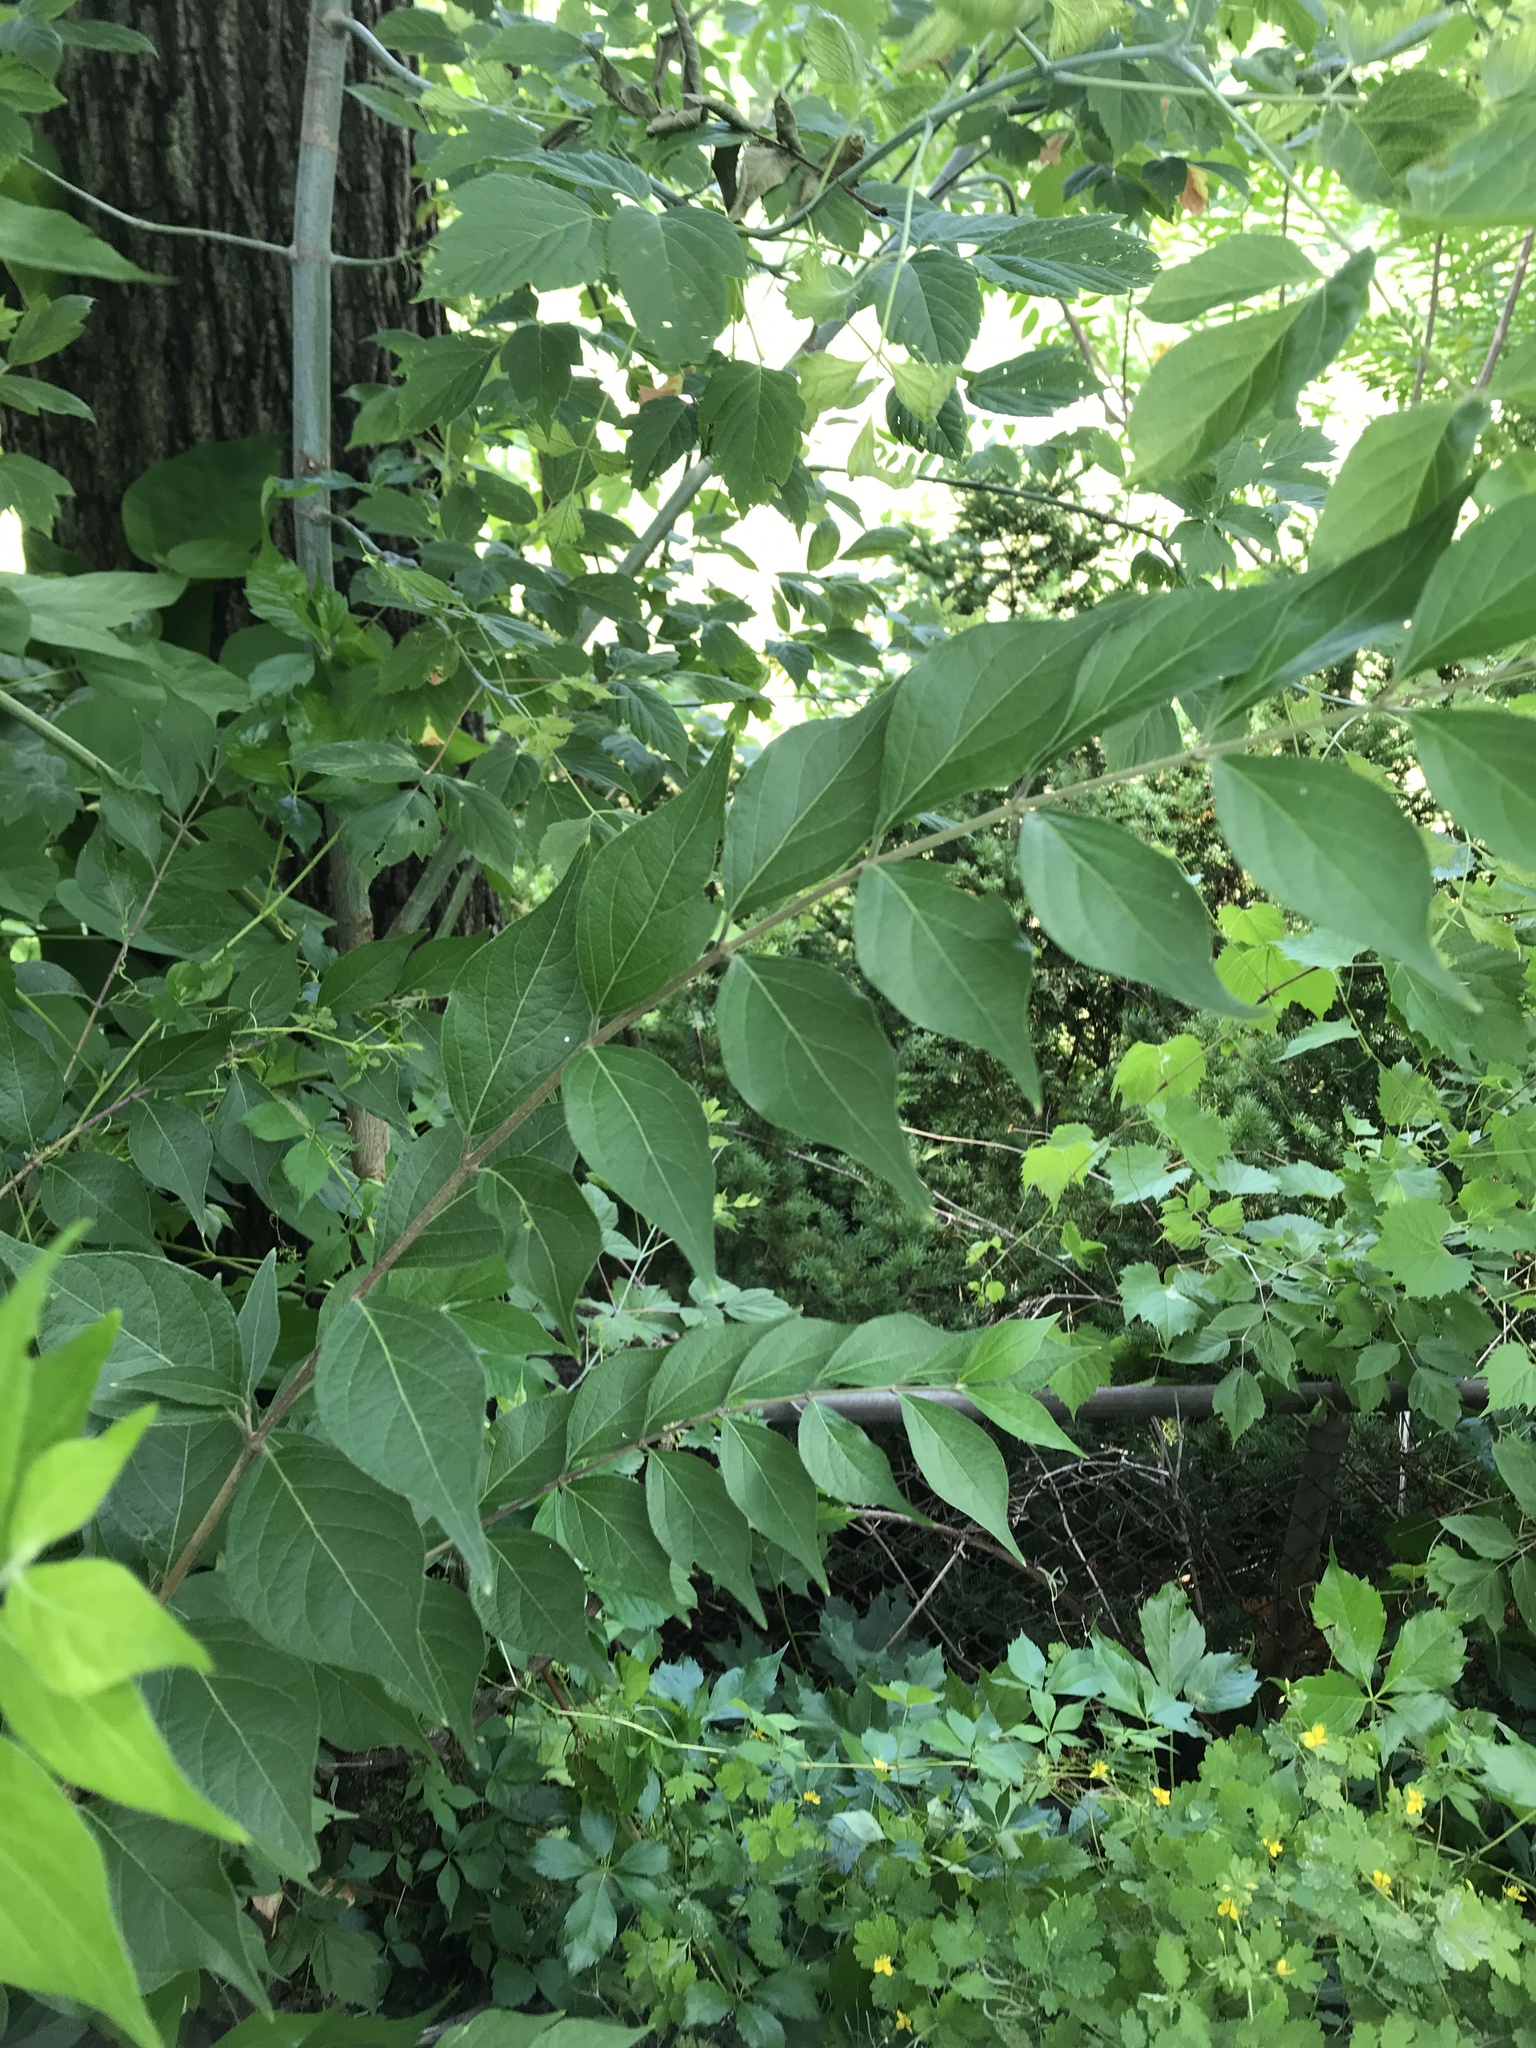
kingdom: Plantae
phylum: Tracheophyta
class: Magnoliopsida
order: Dipsacales
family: Caprifoliaceae
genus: Lonicera
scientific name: Lonicera maackii
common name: Amur honeysuckle
